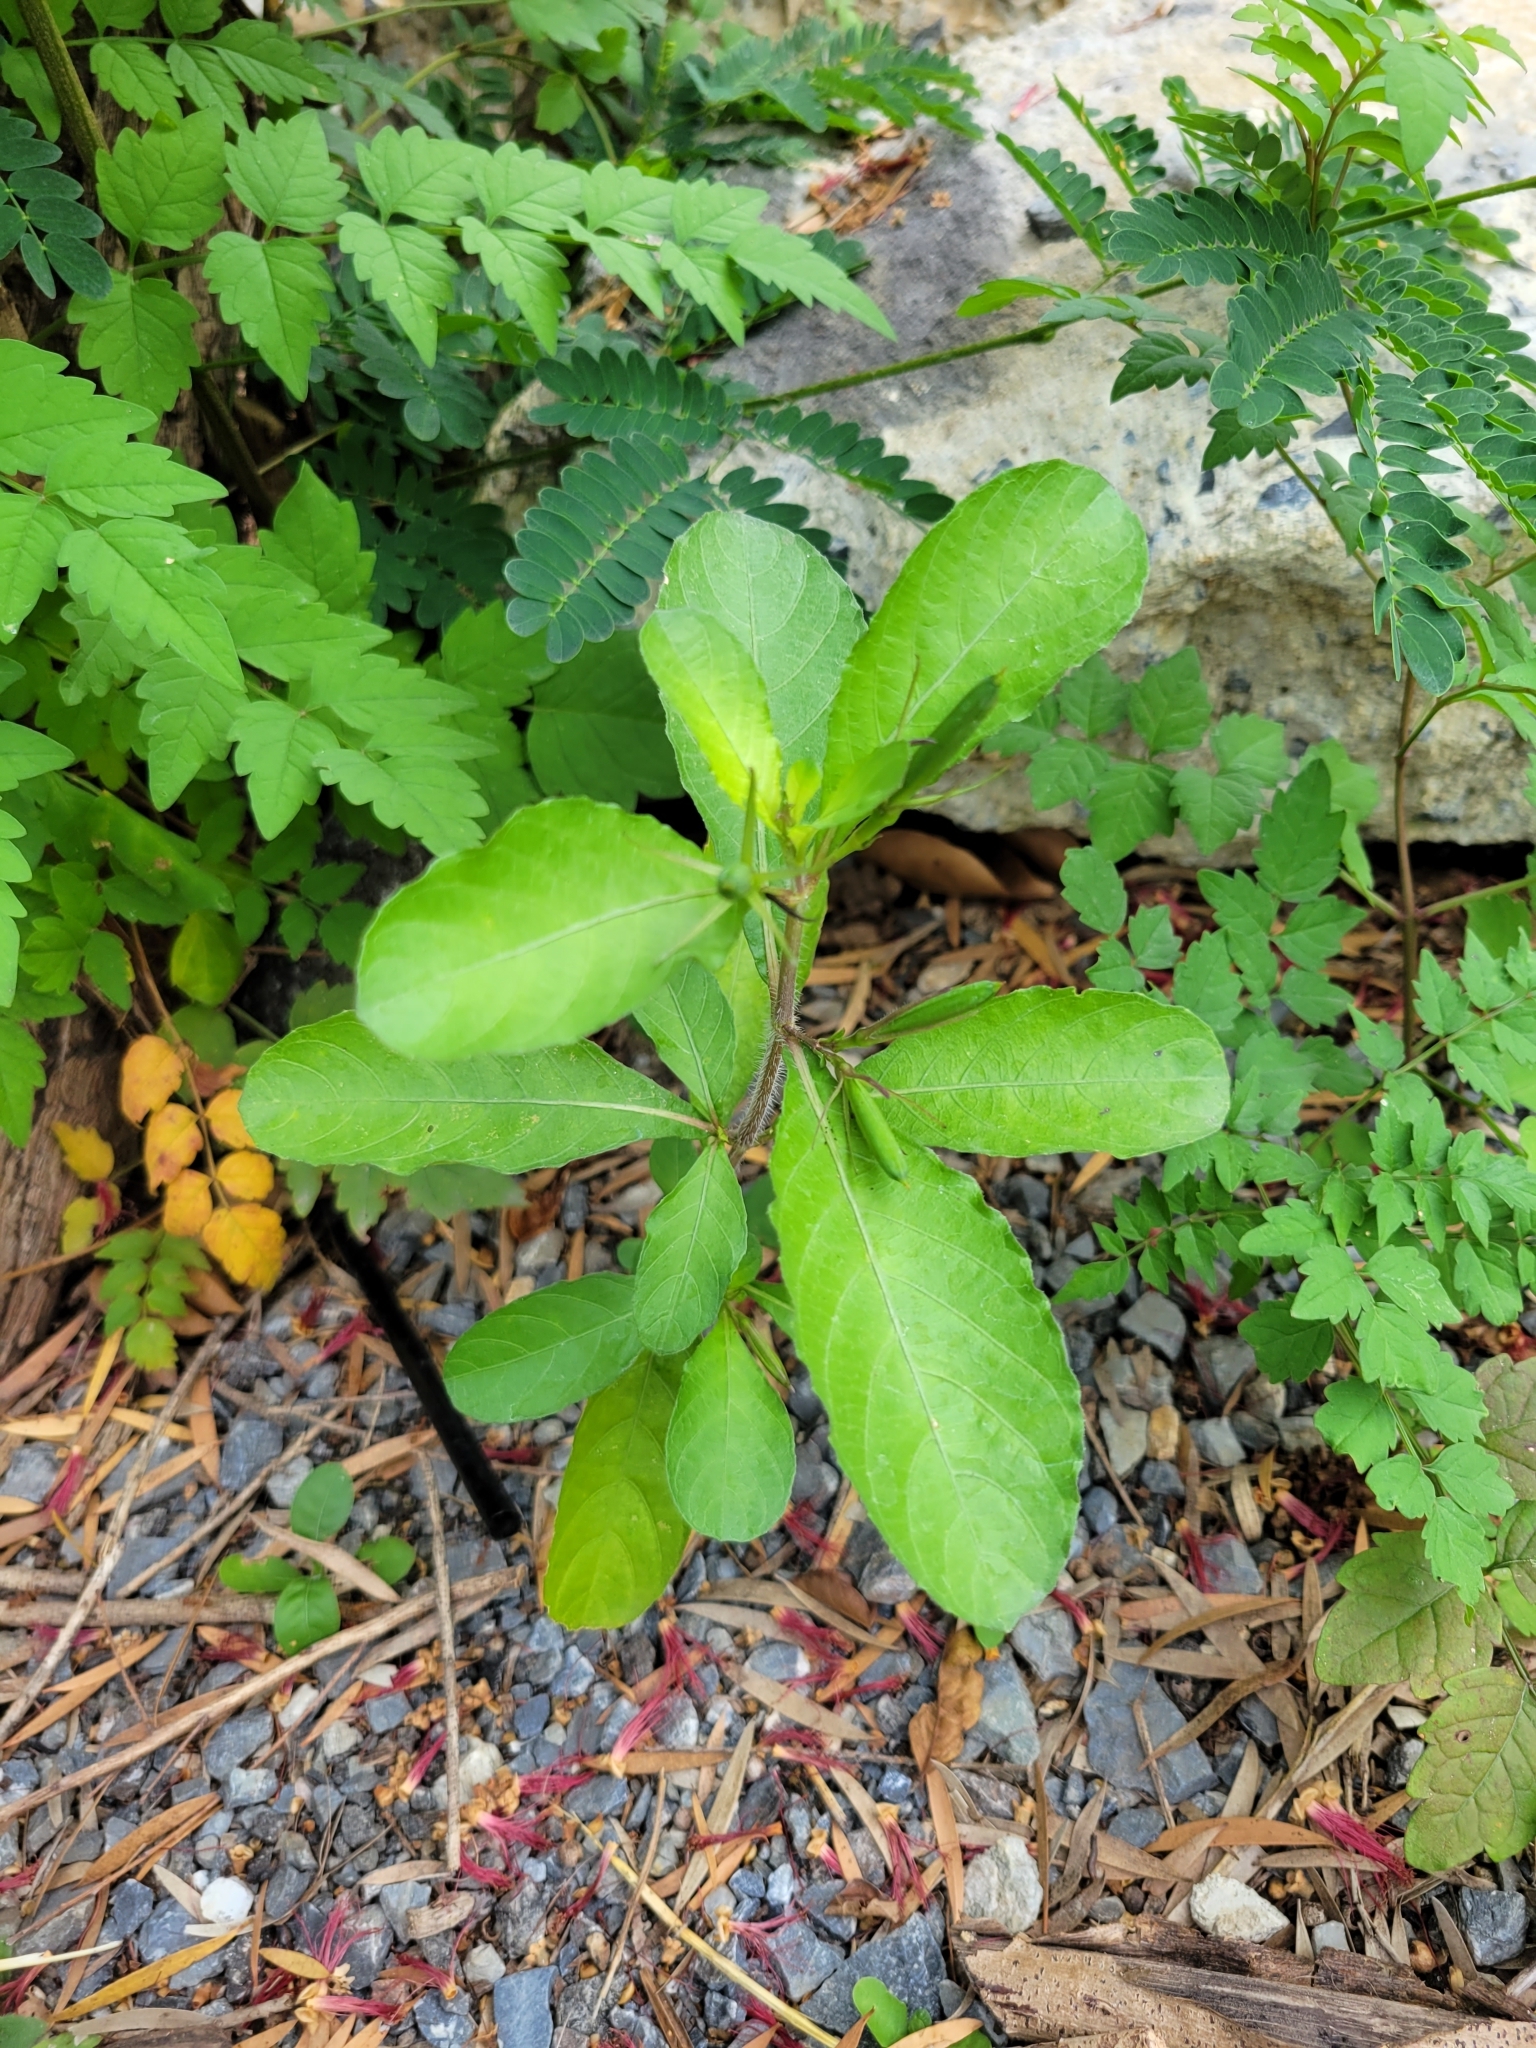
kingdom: Plantae
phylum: Tracheophyta
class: Magnoliopsida
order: Lamiales
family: Acanthaceae
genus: Ruellia
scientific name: Ruellia tuberosa
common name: Devil's bit
